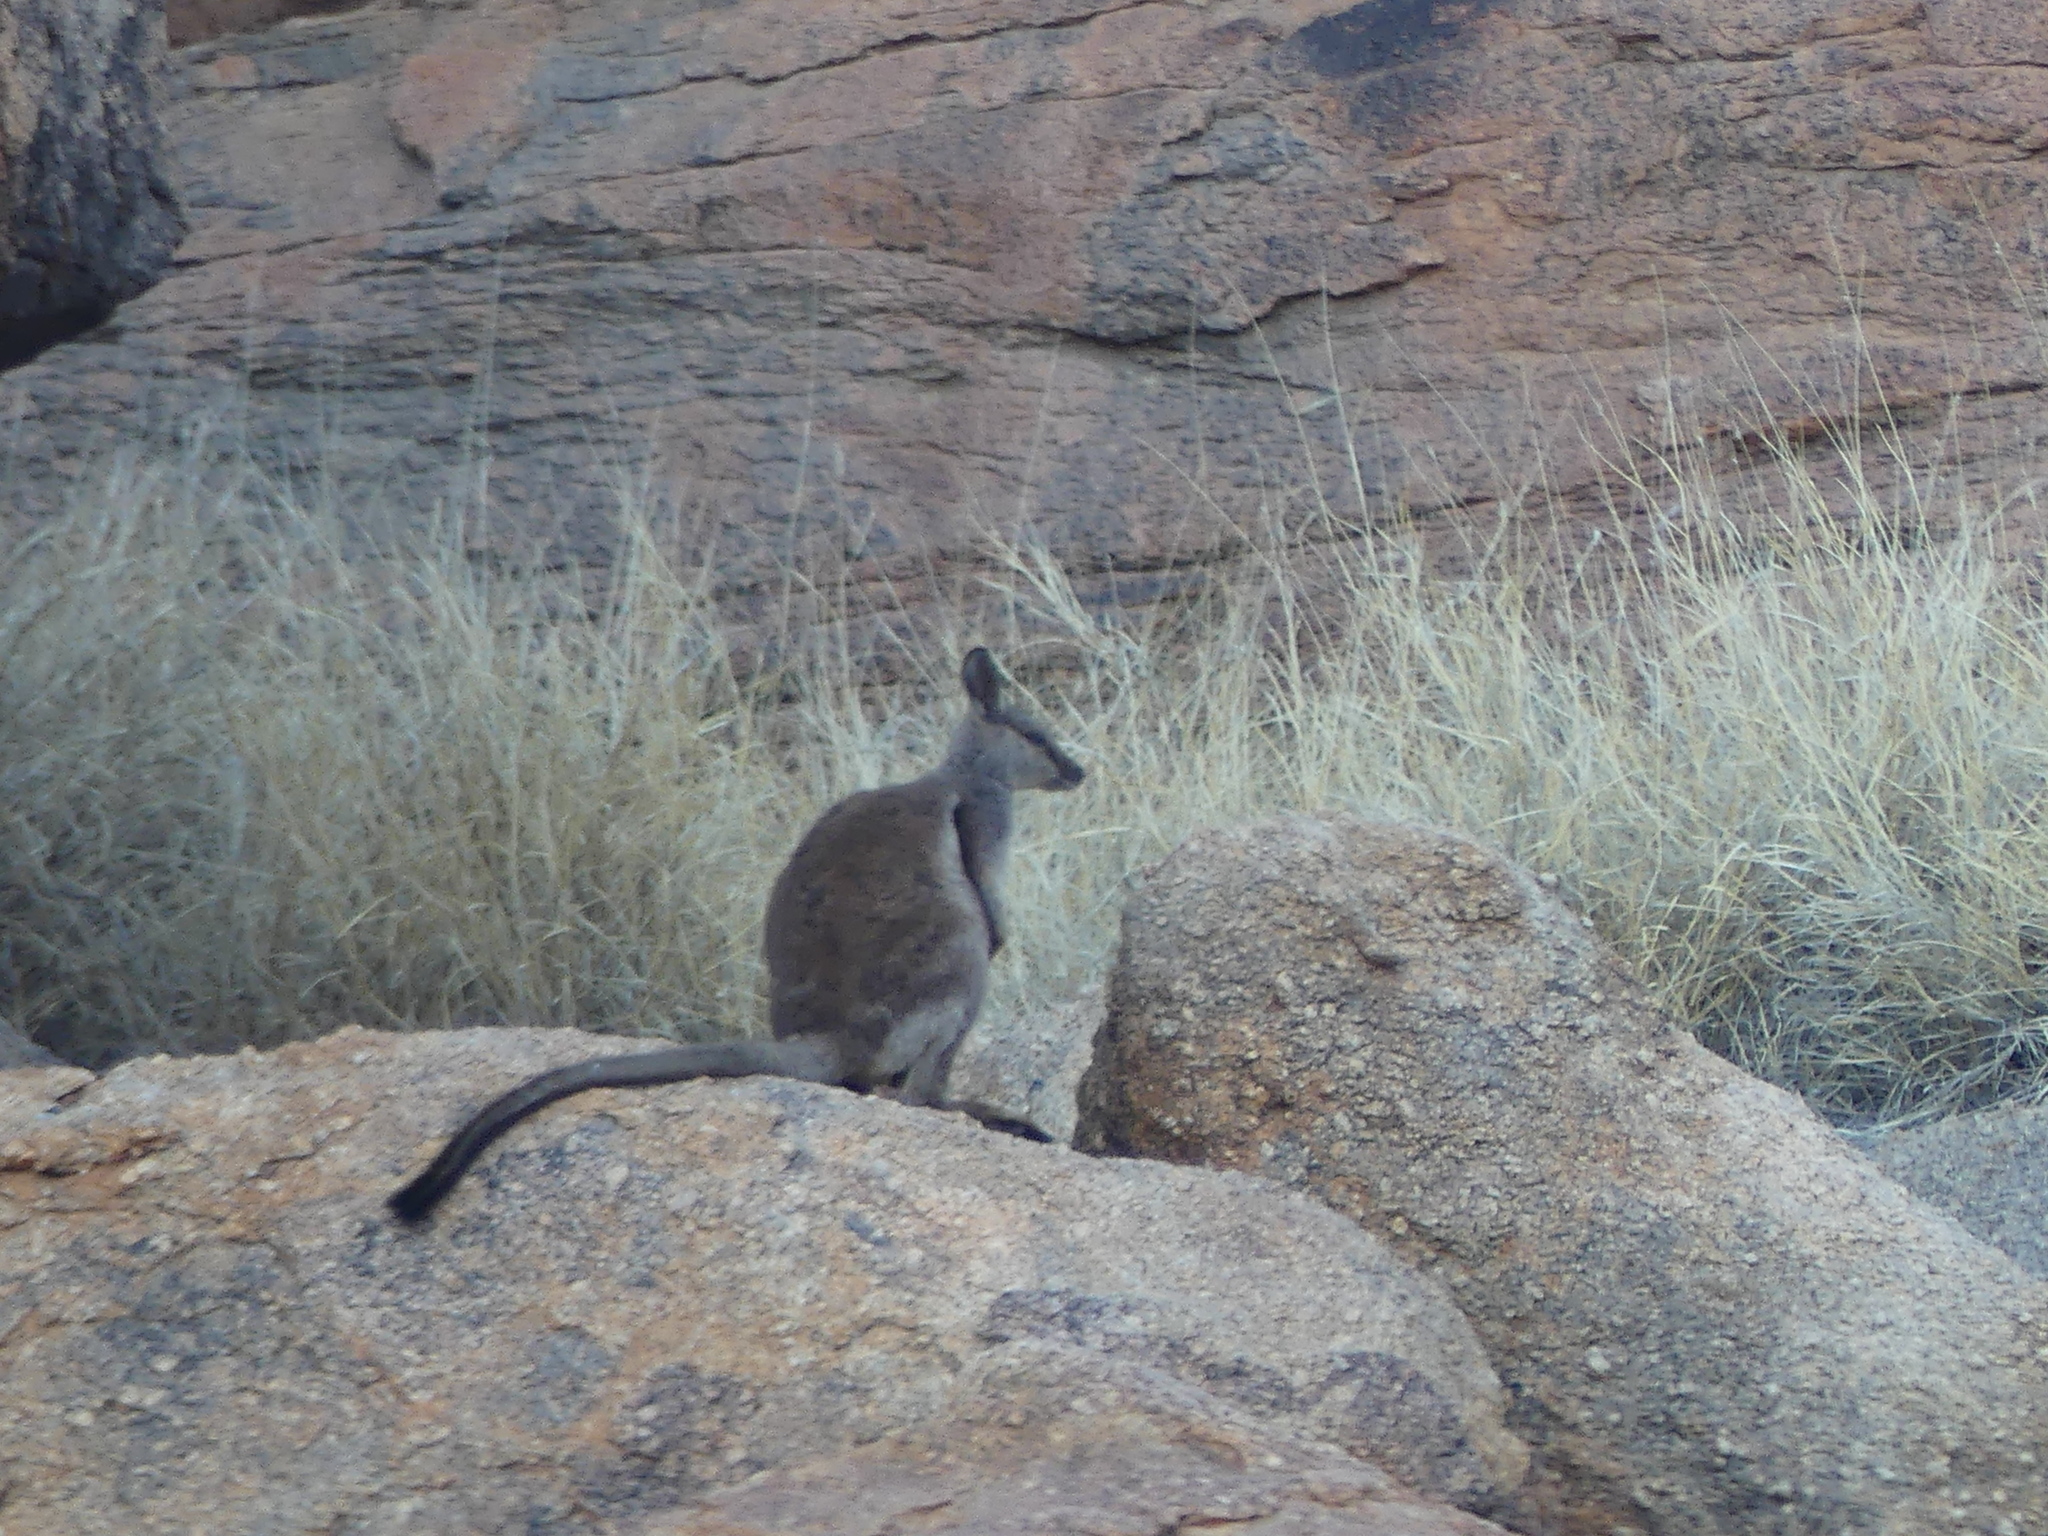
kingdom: Animalia
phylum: Chordata
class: Mammalia
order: Diprotodontia
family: Macropodidae
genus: Petrogale
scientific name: Petrogale lateralis
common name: Black-flanked rock-wallaby
